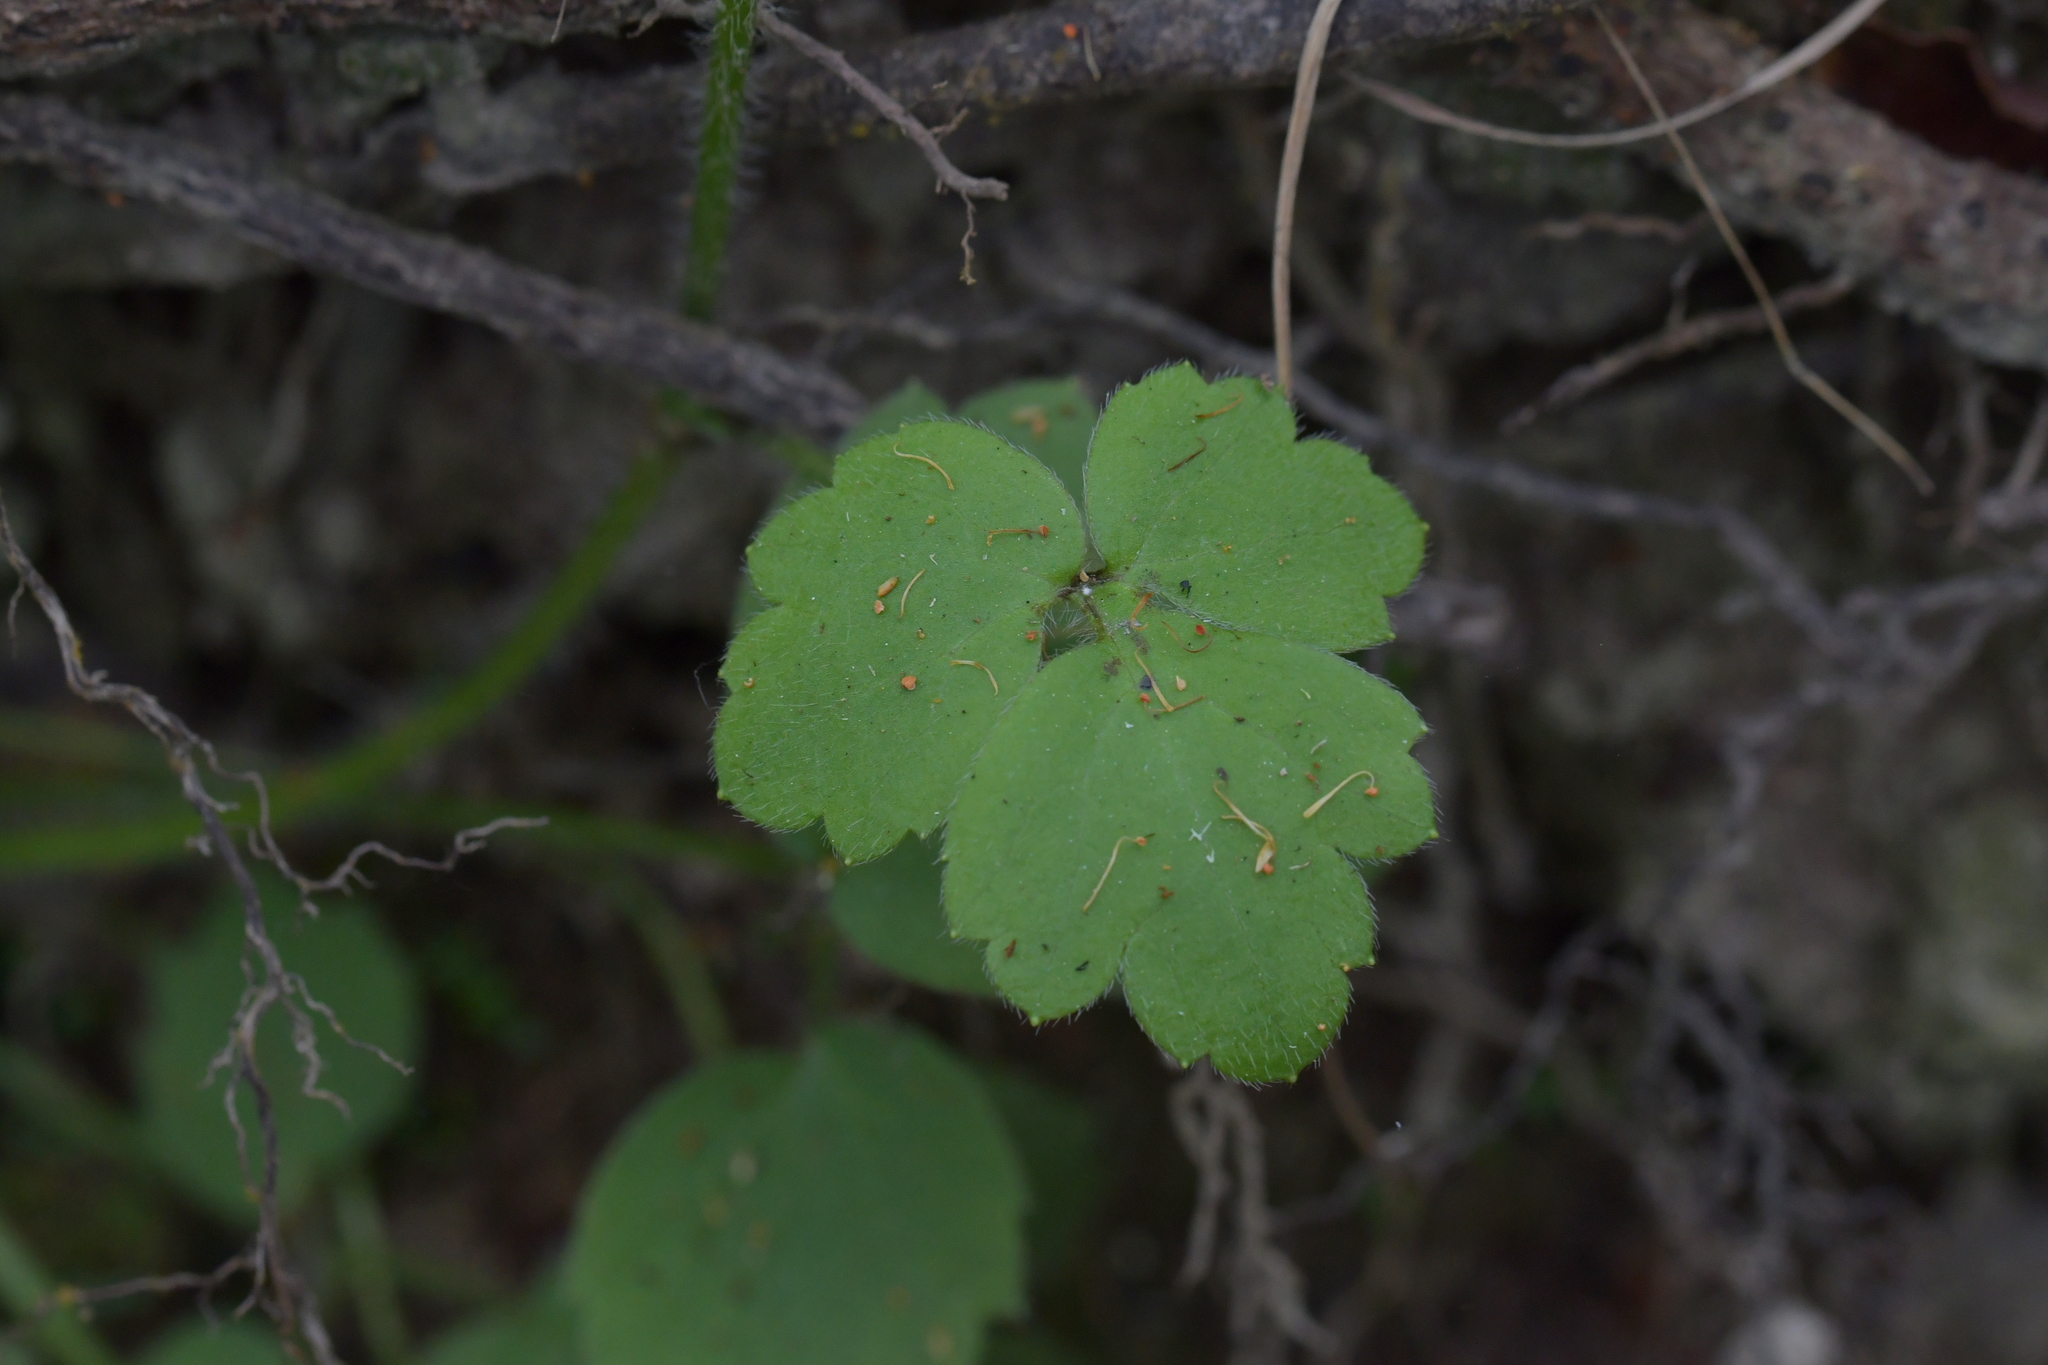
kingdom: Plantae
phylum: Tracheophyta
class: Magnoliopsida
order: Ranunculales
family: Ranunculaceae
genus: Ranunculus
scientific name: Ranunculus reflexus
